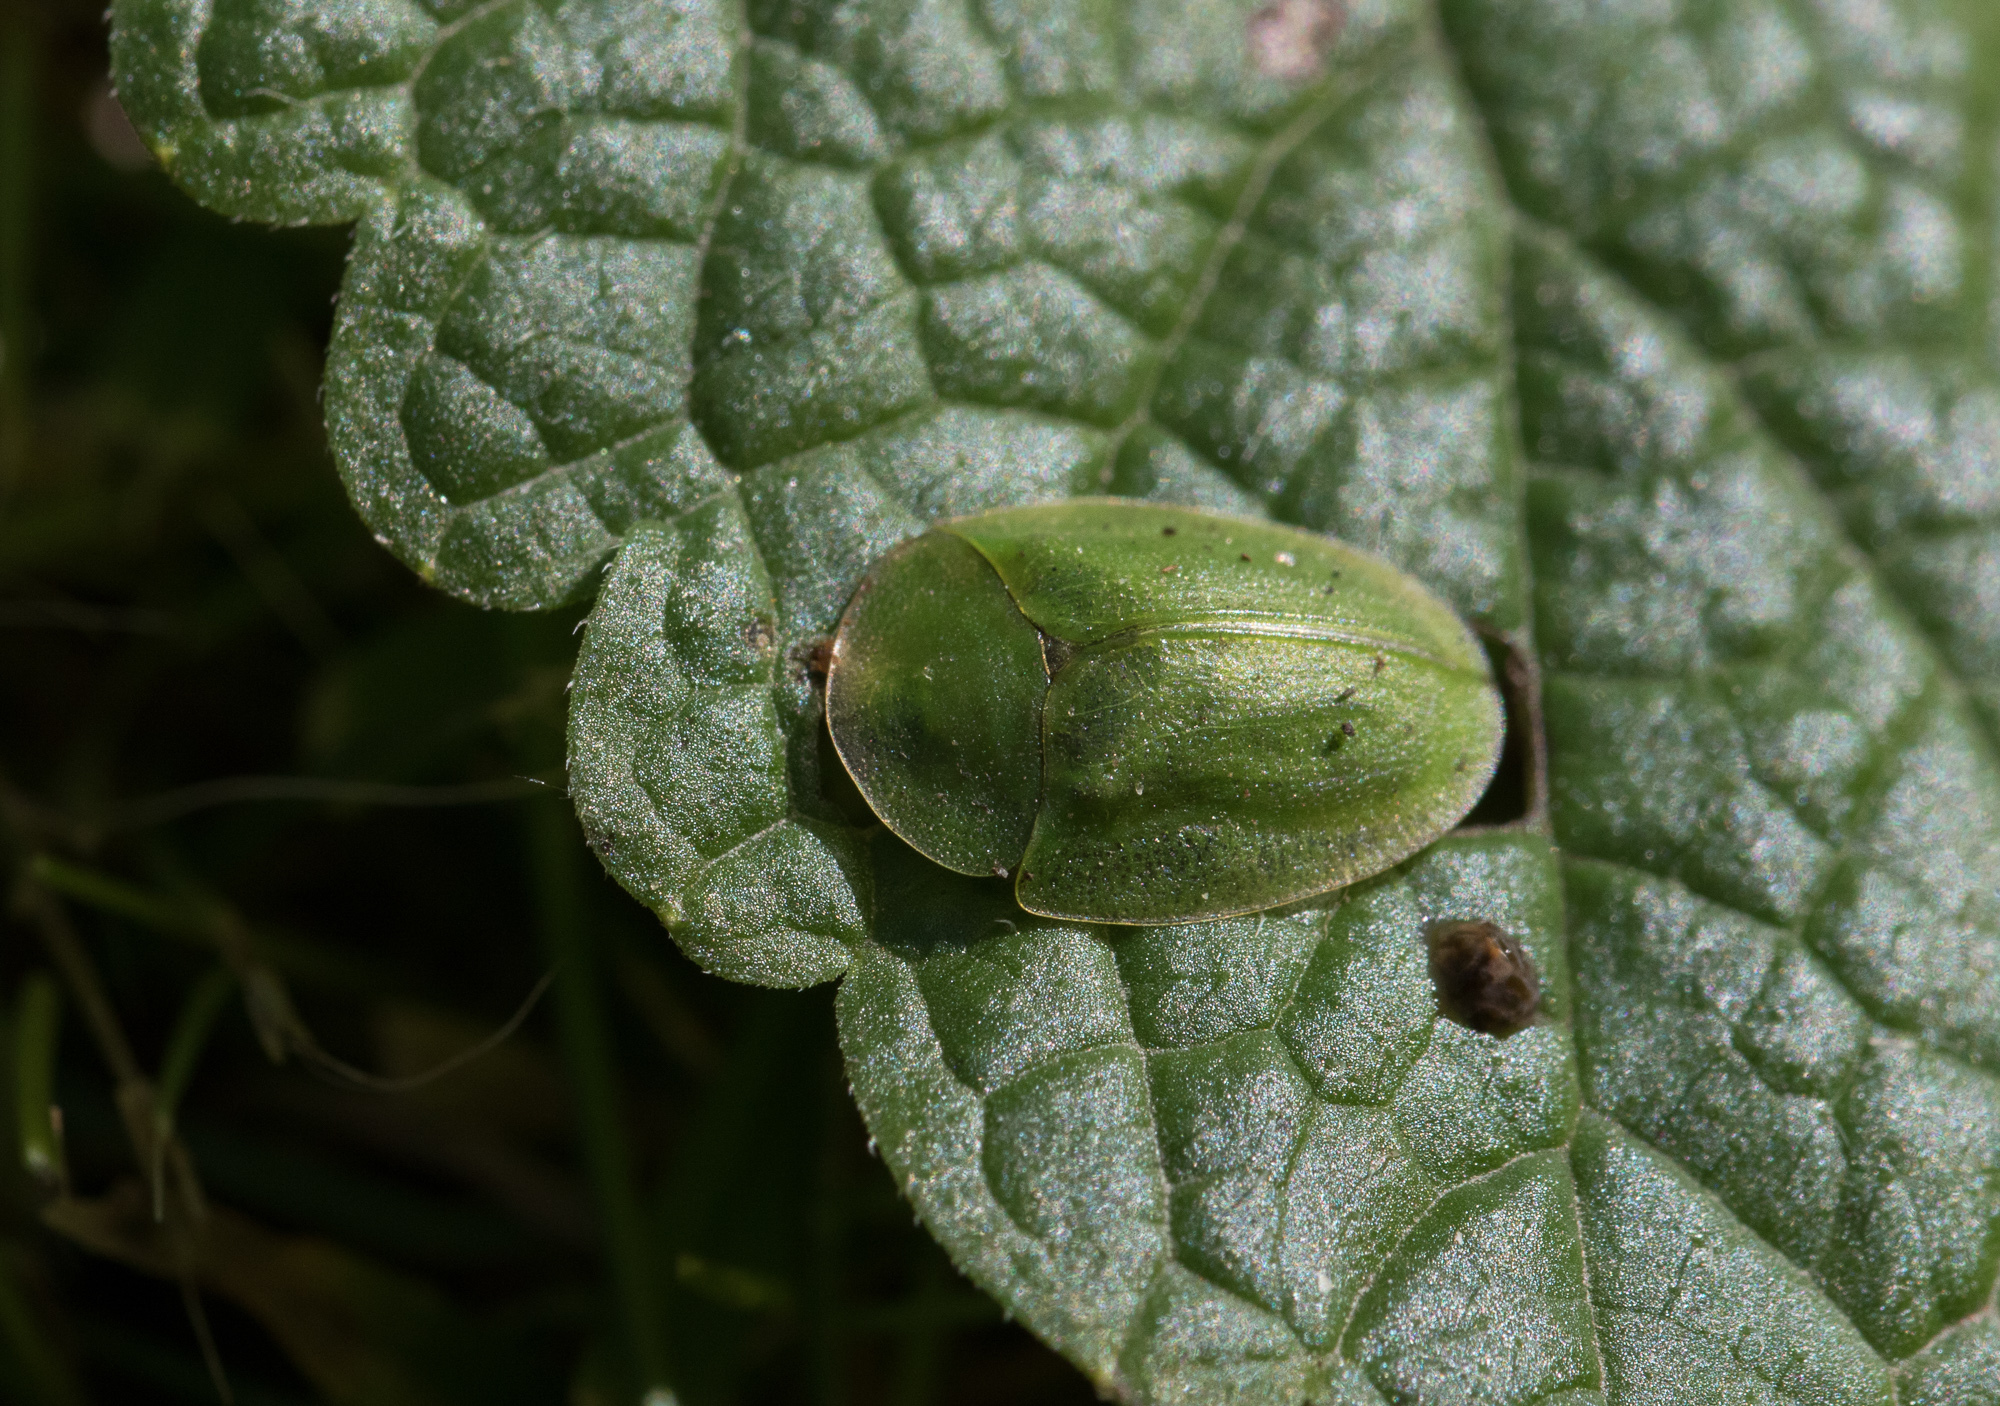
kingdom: Animalia
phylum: Arthropoda
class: Insecta
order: Coleoptera
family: Chrysomelidae
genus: Cassida
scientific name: Cassida viridis
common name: Green tortoise beetle
